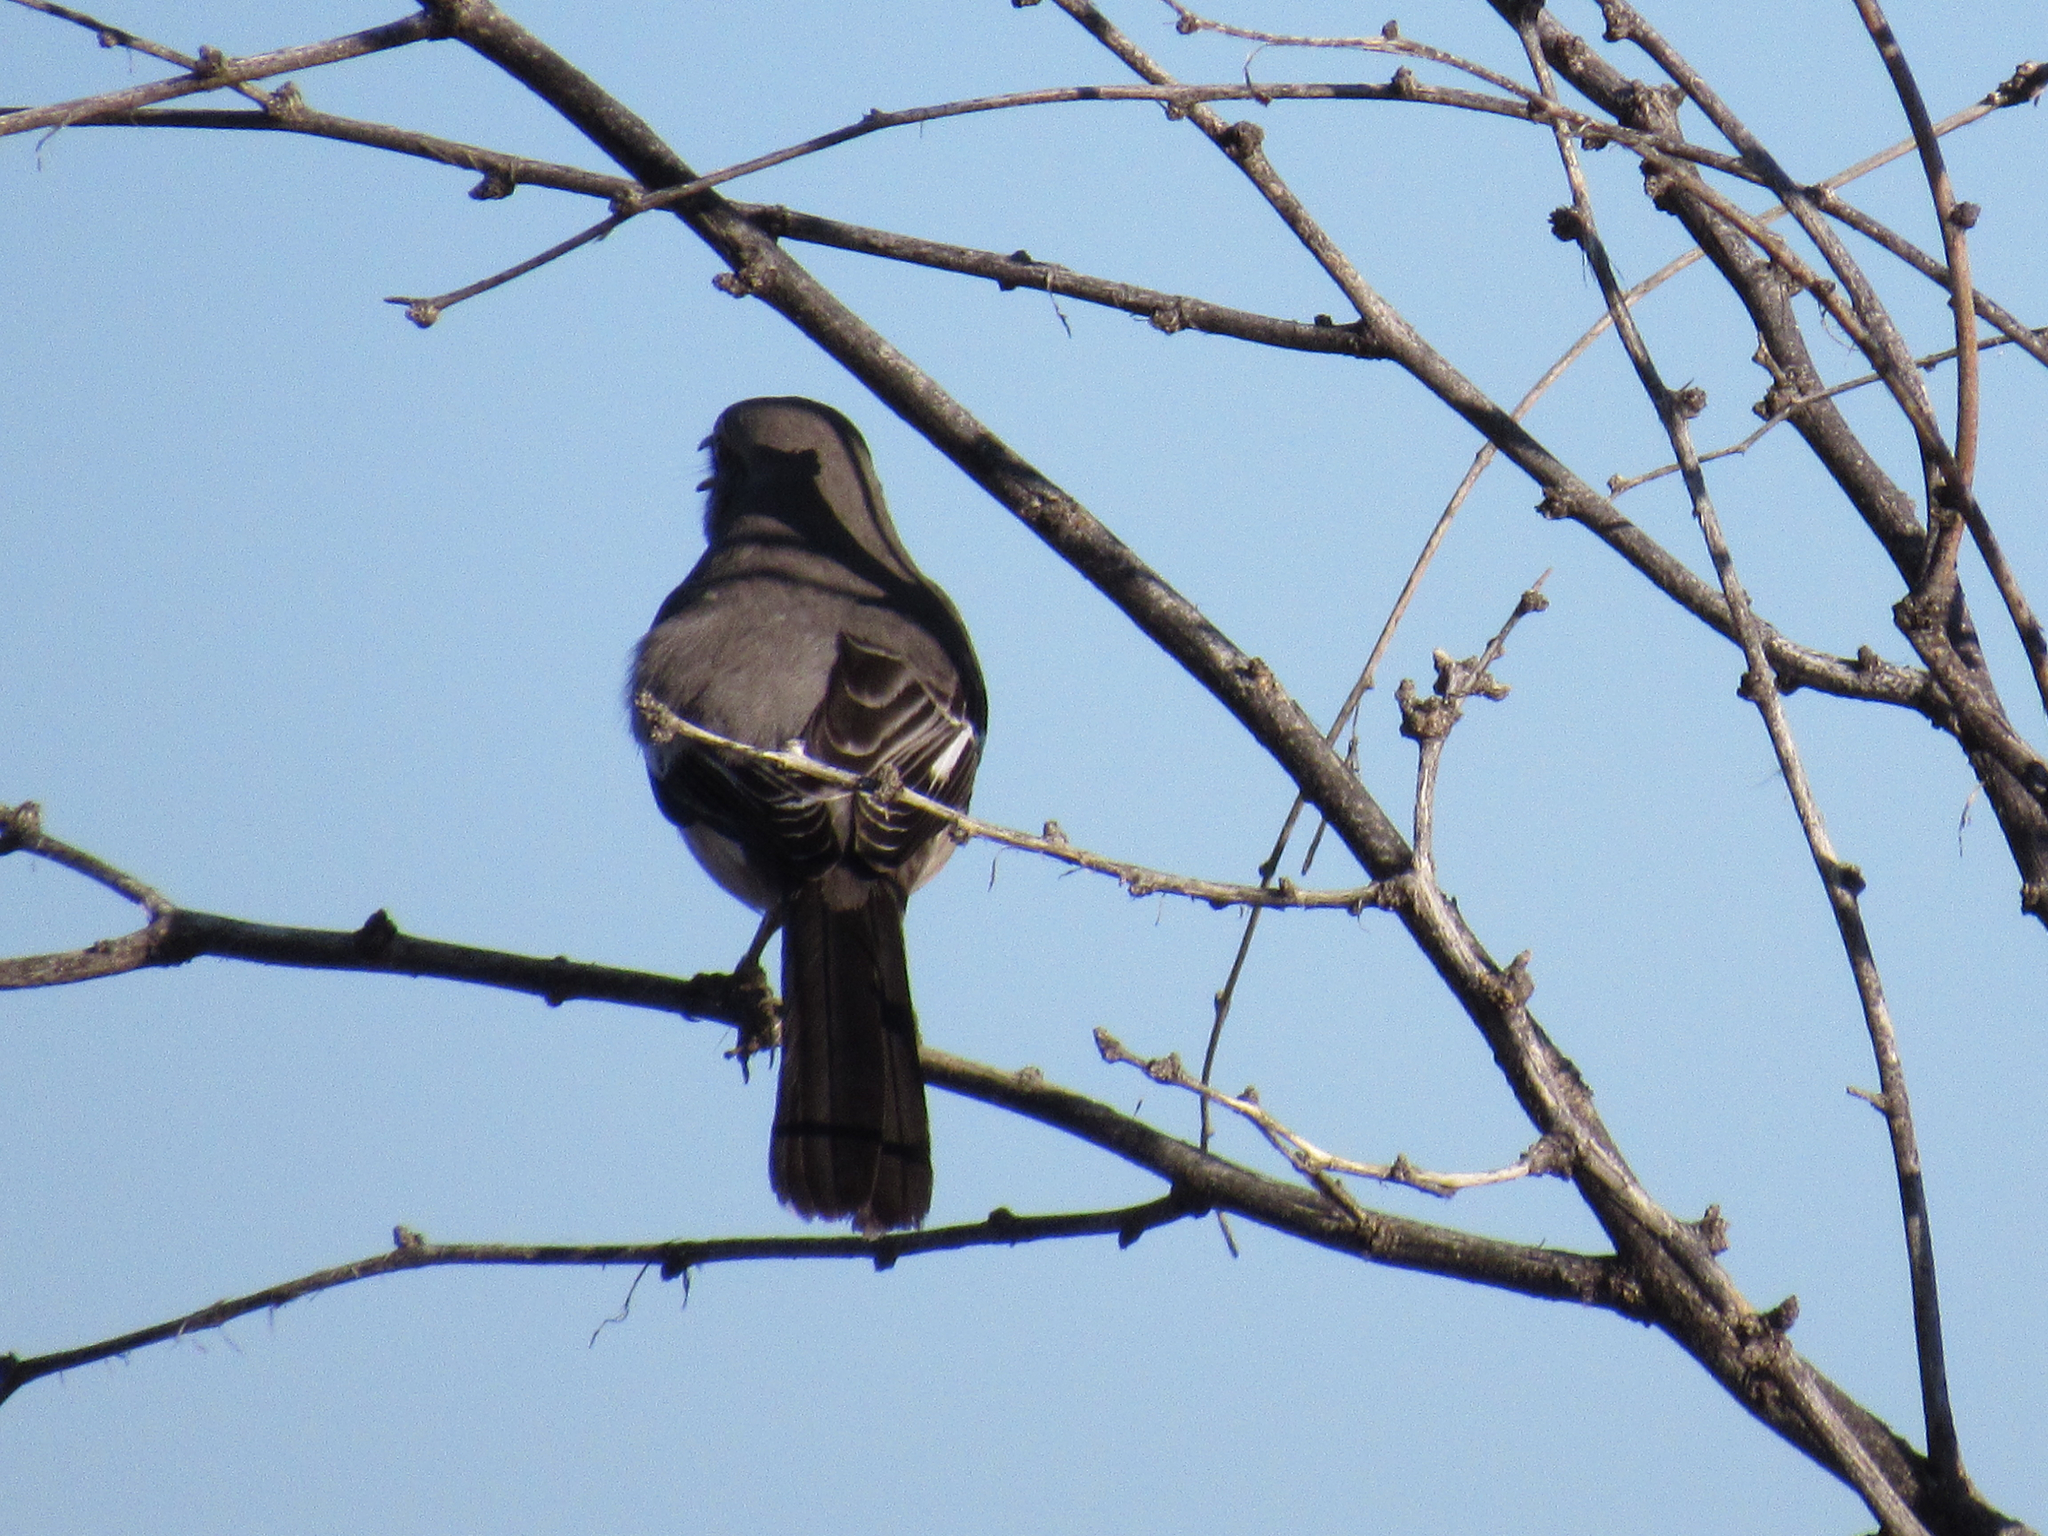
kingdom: Animalia
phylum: Chordata
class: Aves
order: Passeriformes
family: Mimidae
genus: Mimus
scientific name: Mimus polyglottos
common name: Northern mockingbird
